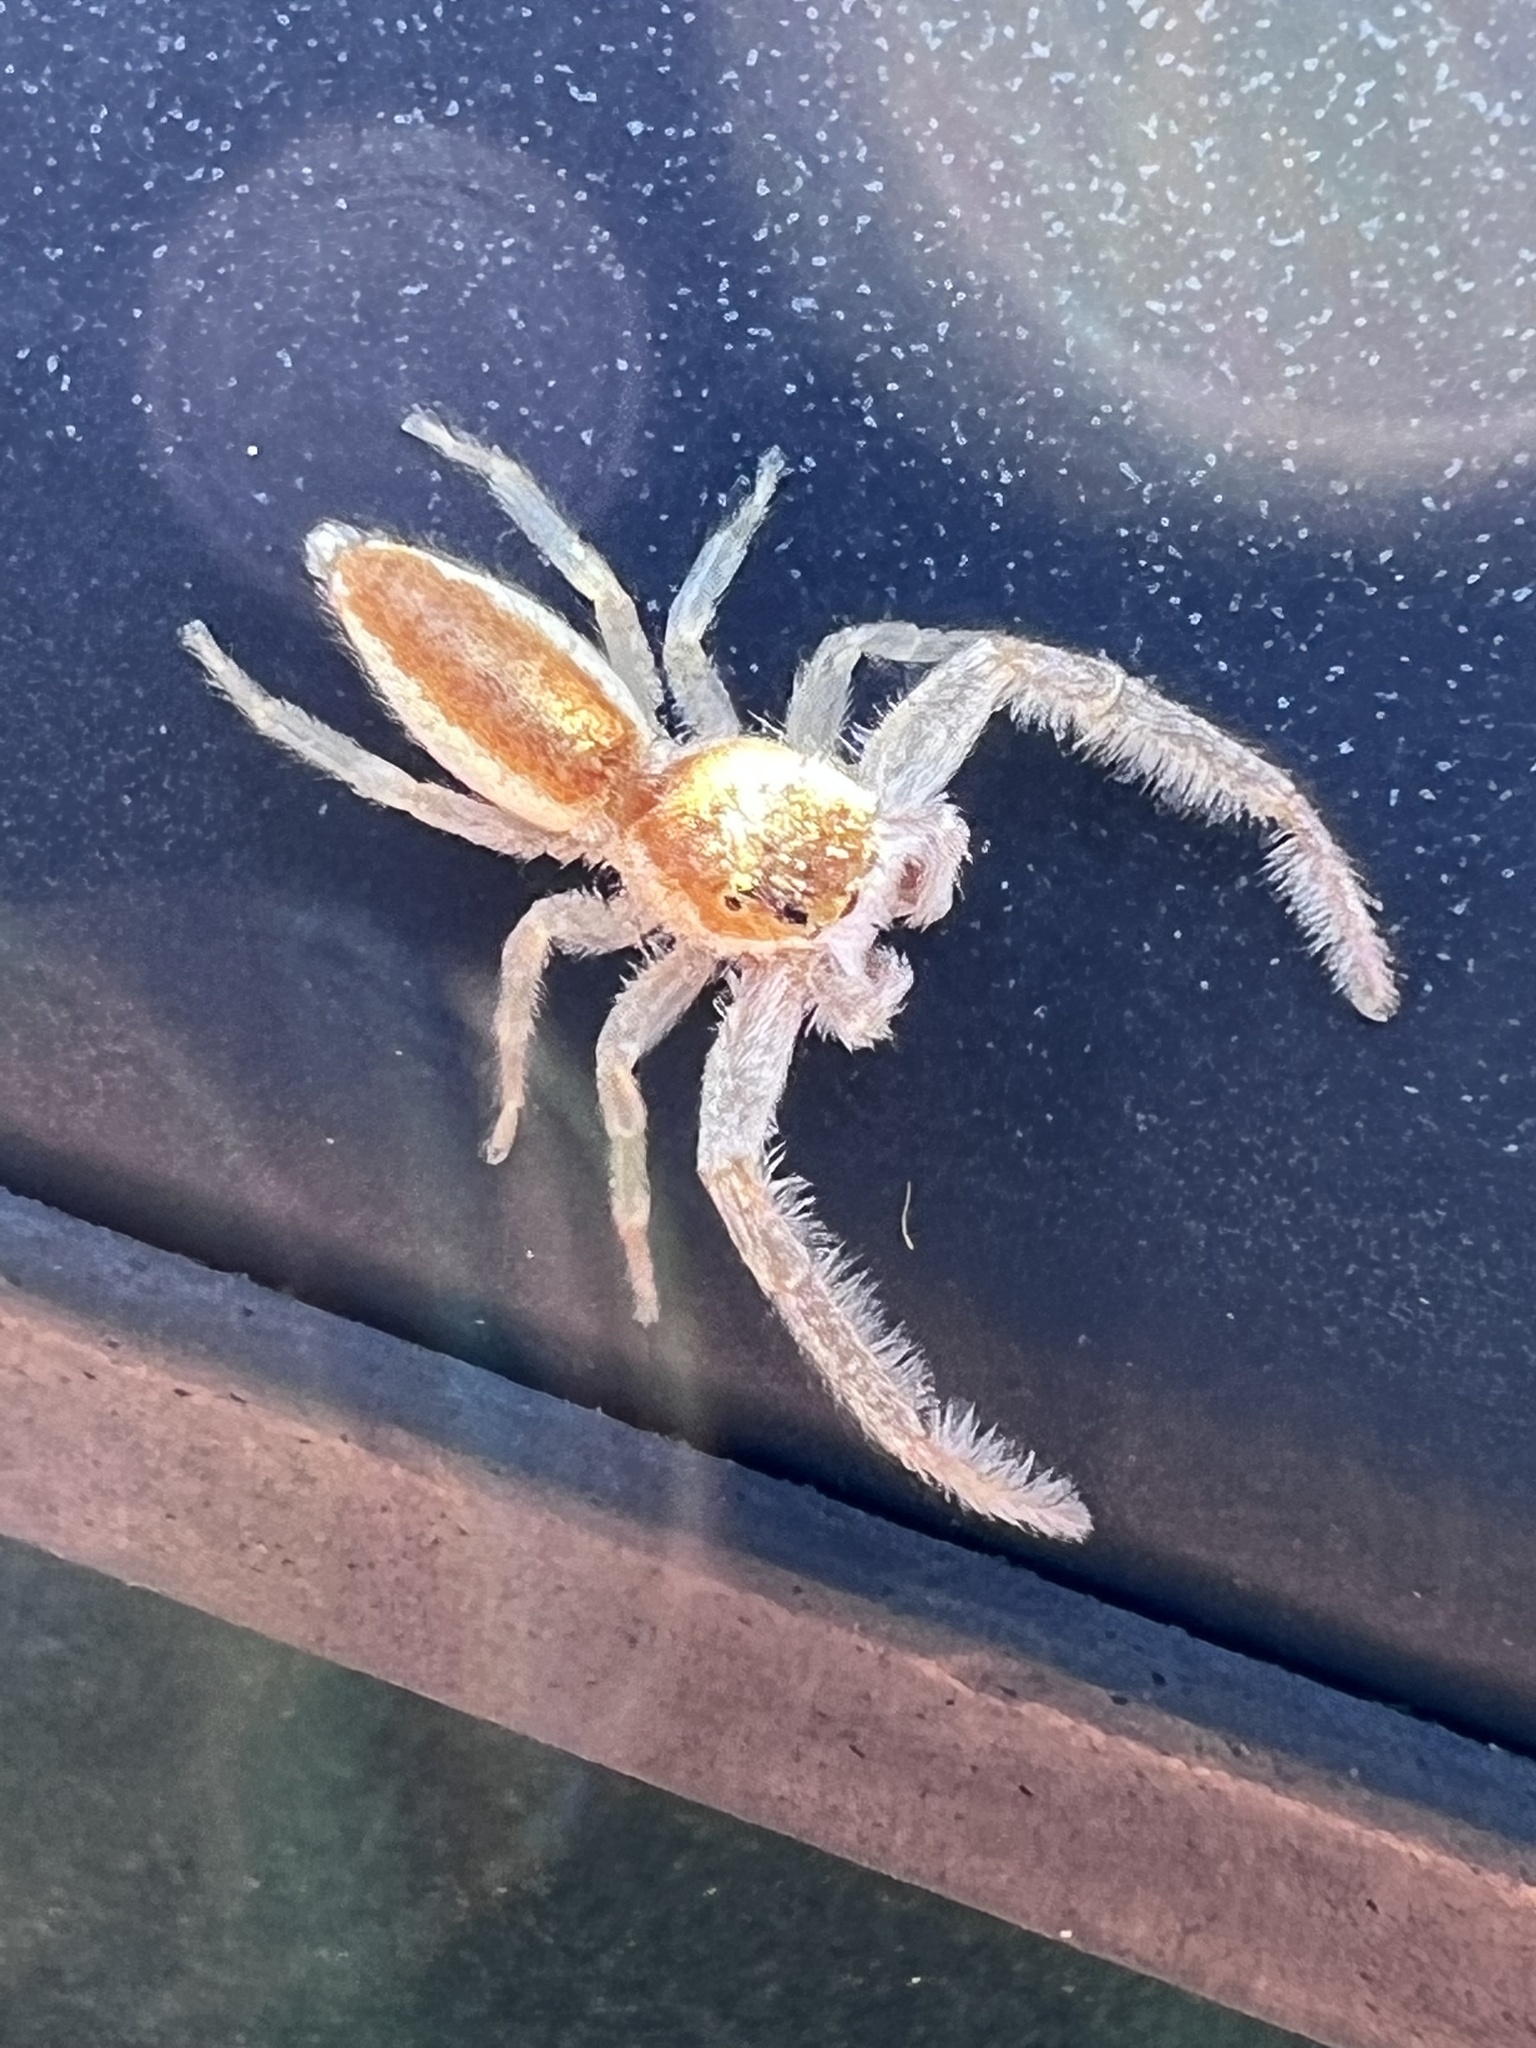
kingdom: Animalia
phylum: Arthropoda
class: Arachnida
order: Araneae
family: Salticidae
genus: Hentzia
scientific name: Hentzia mitrata
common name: White-jawed jumping spider
